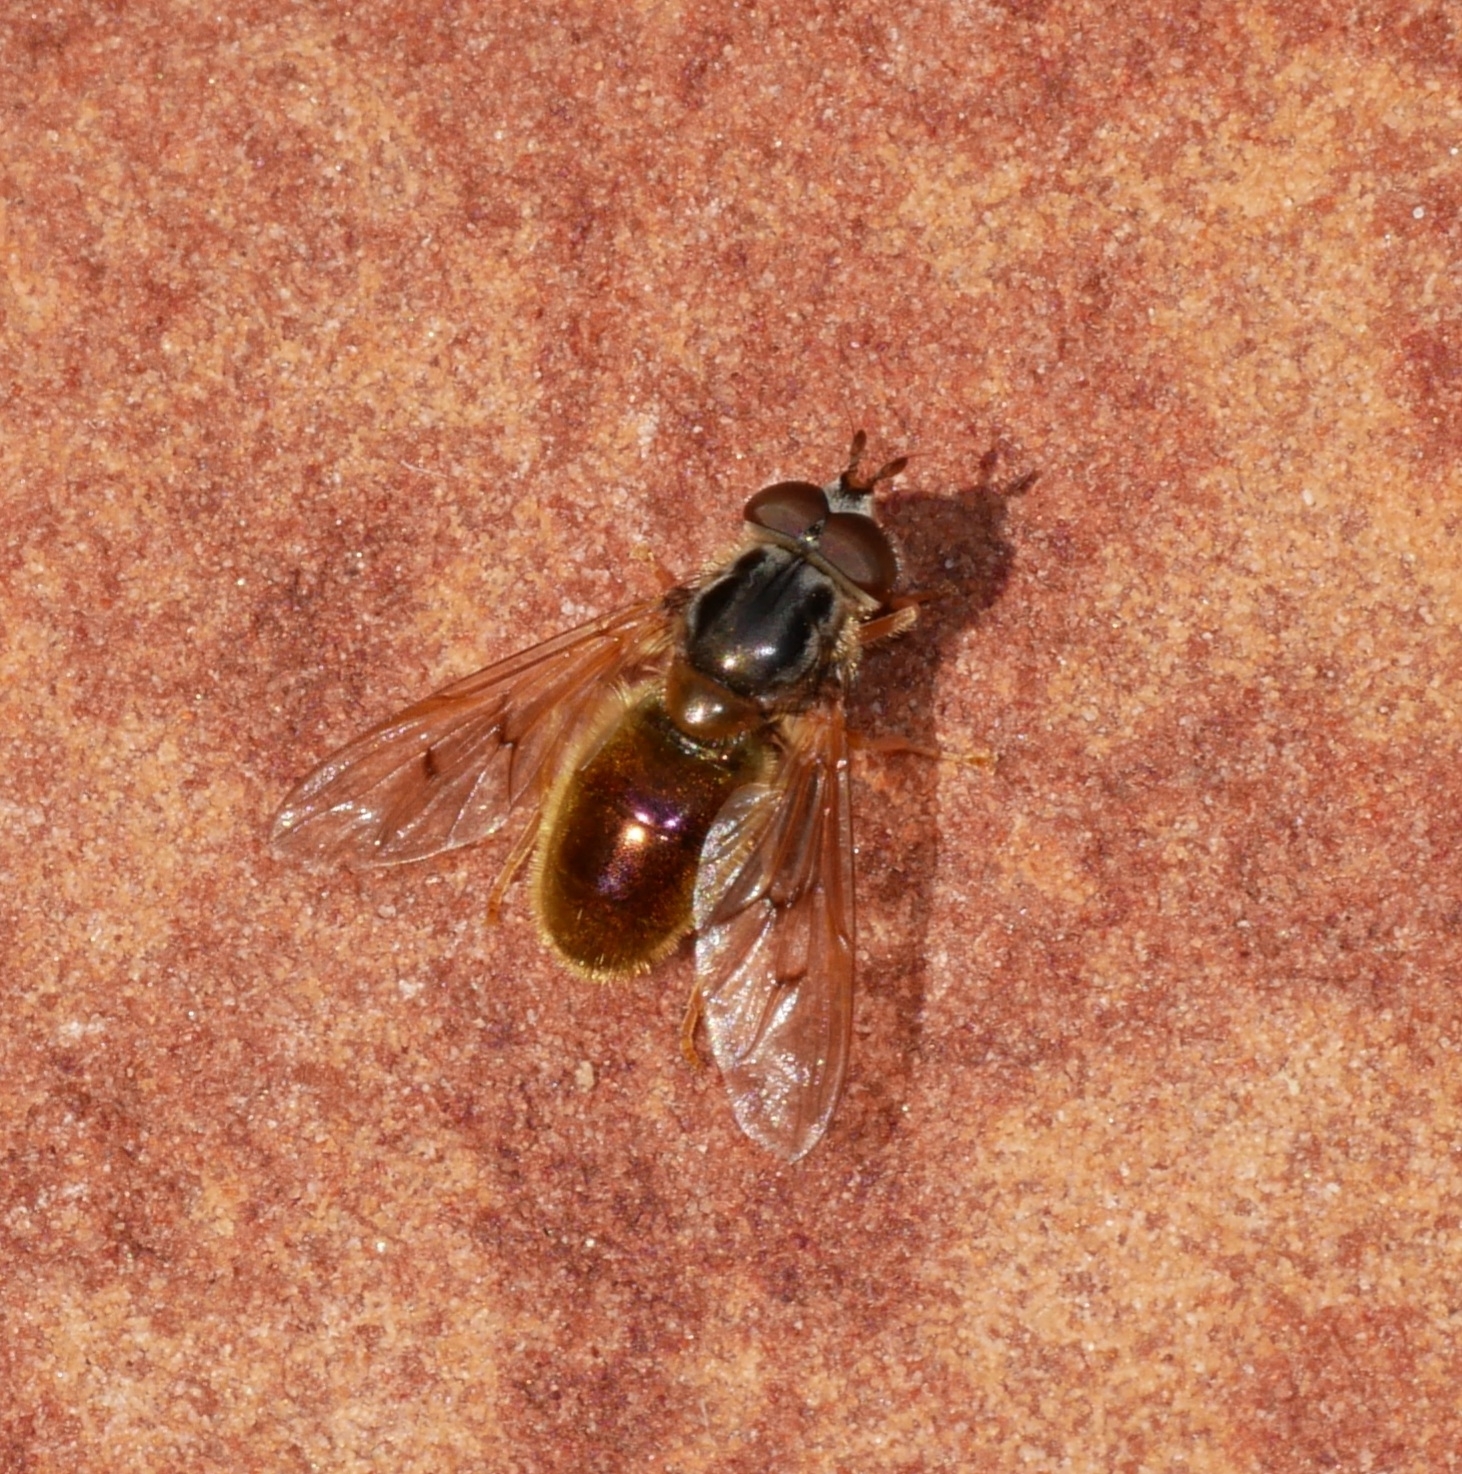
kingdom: Animalia
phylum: Arthropoda
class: Insecta
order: Diptera
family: Syrphidae
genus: Ferdinandea
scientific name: Ferdinandea croesus
